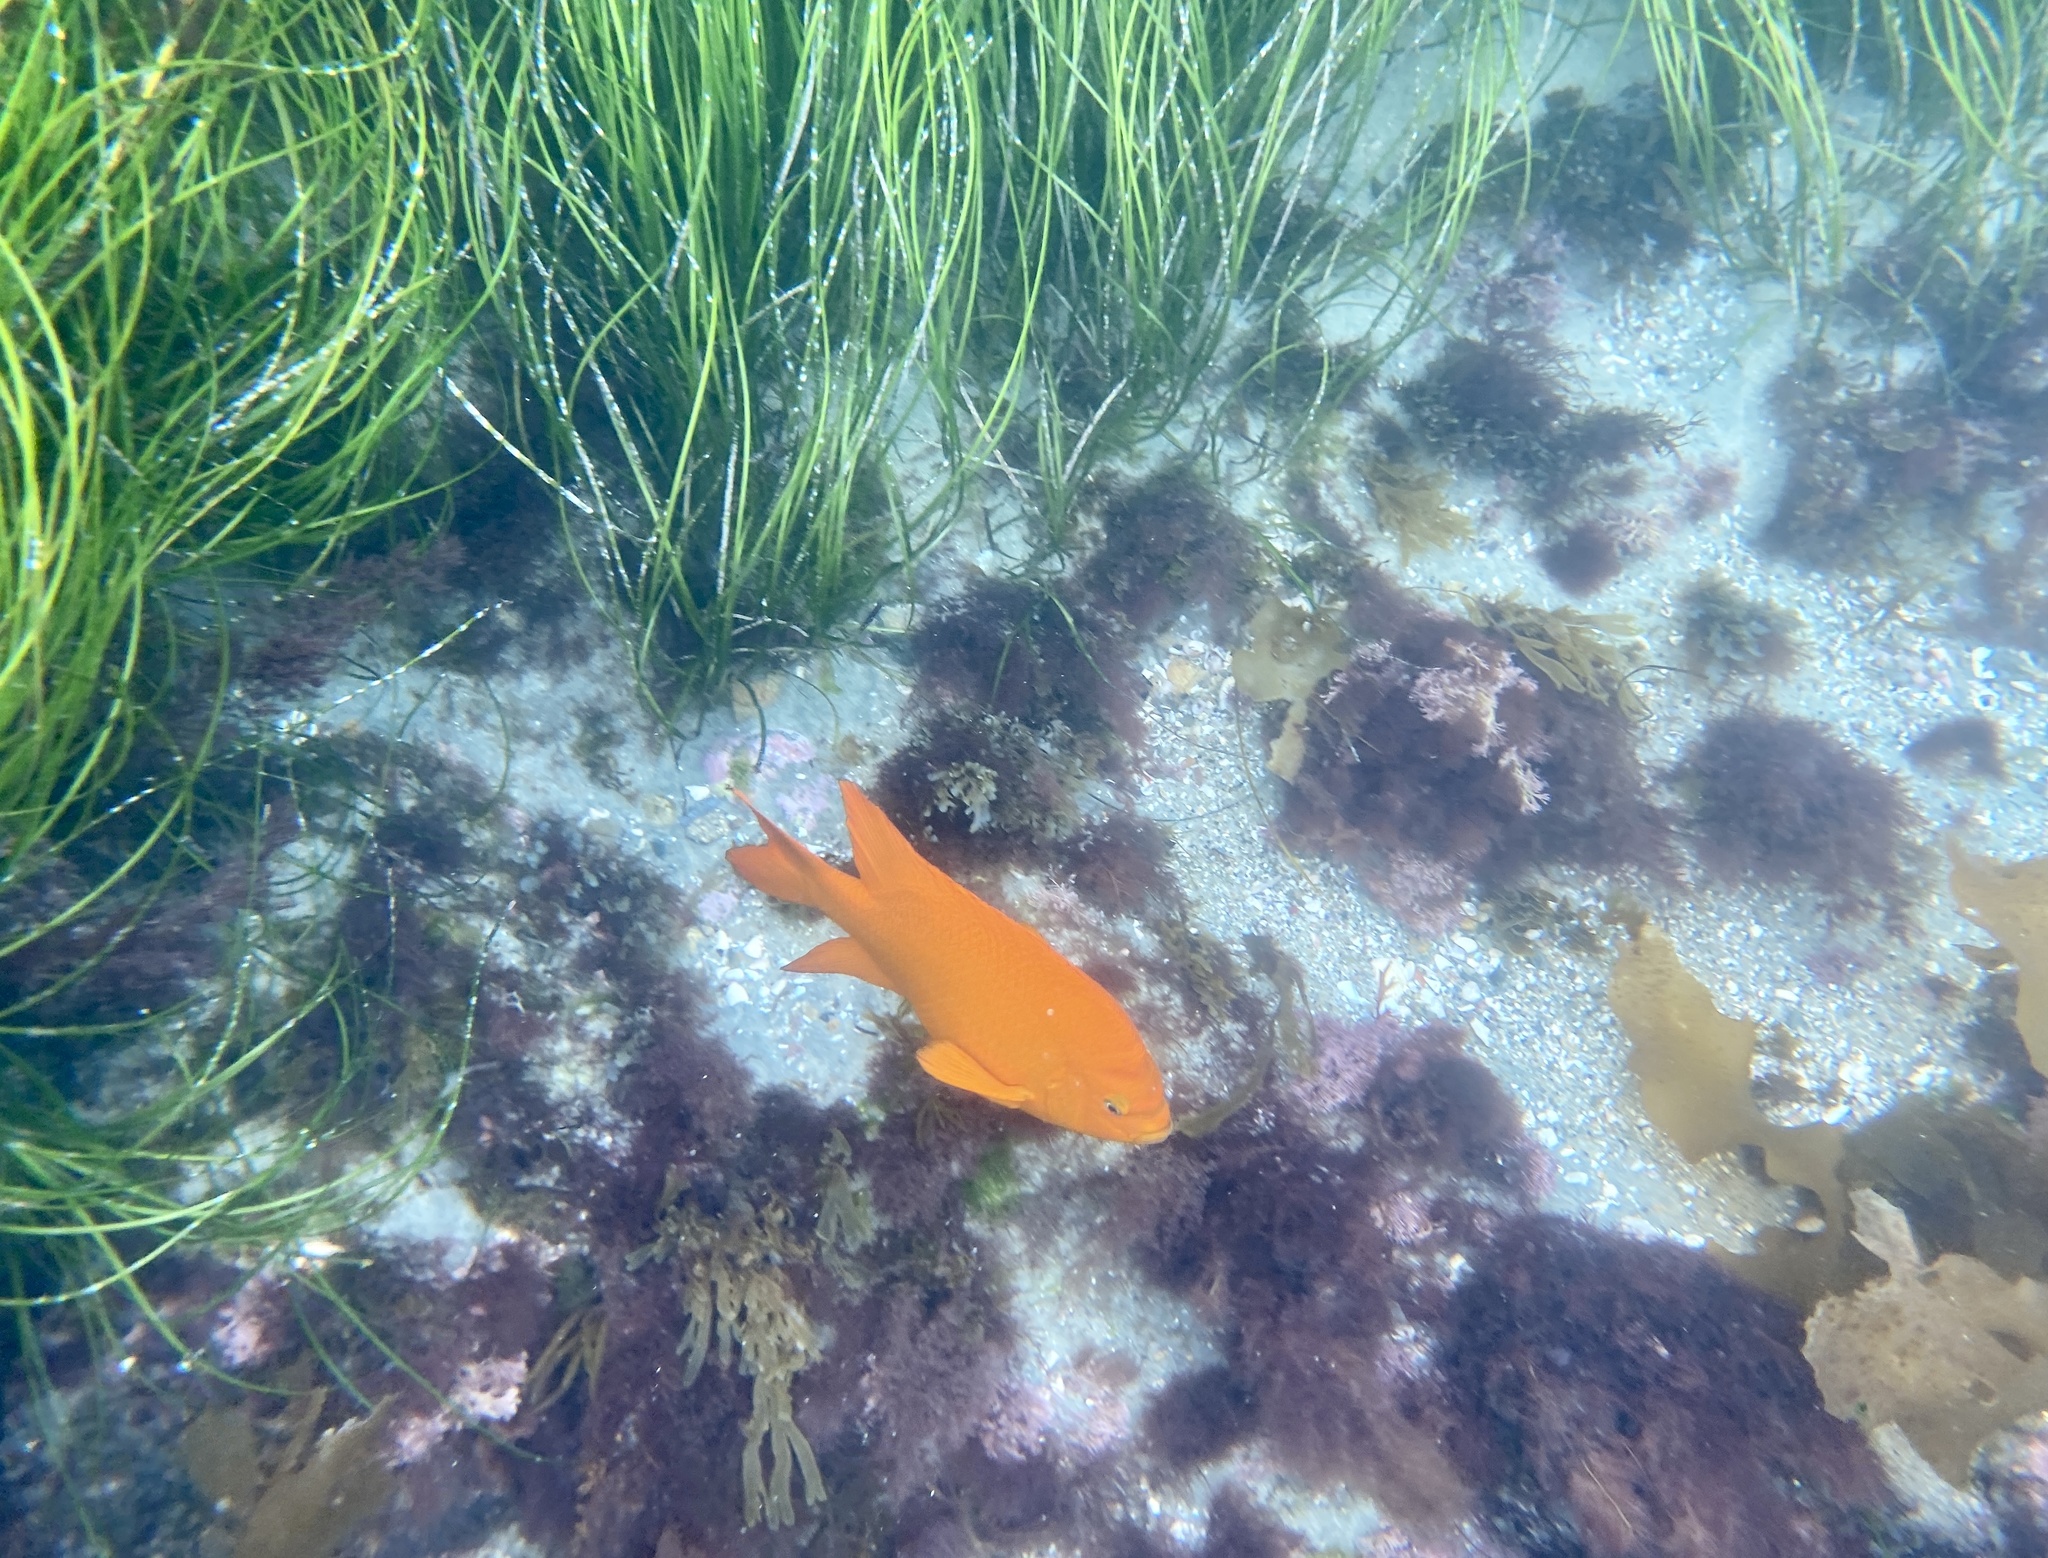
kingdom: Animalia
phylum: Chordata
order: Perciformes
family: Pomacentridae
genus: Hypsypops
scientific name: Hypsypops rubicundus
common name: Garibaldi
